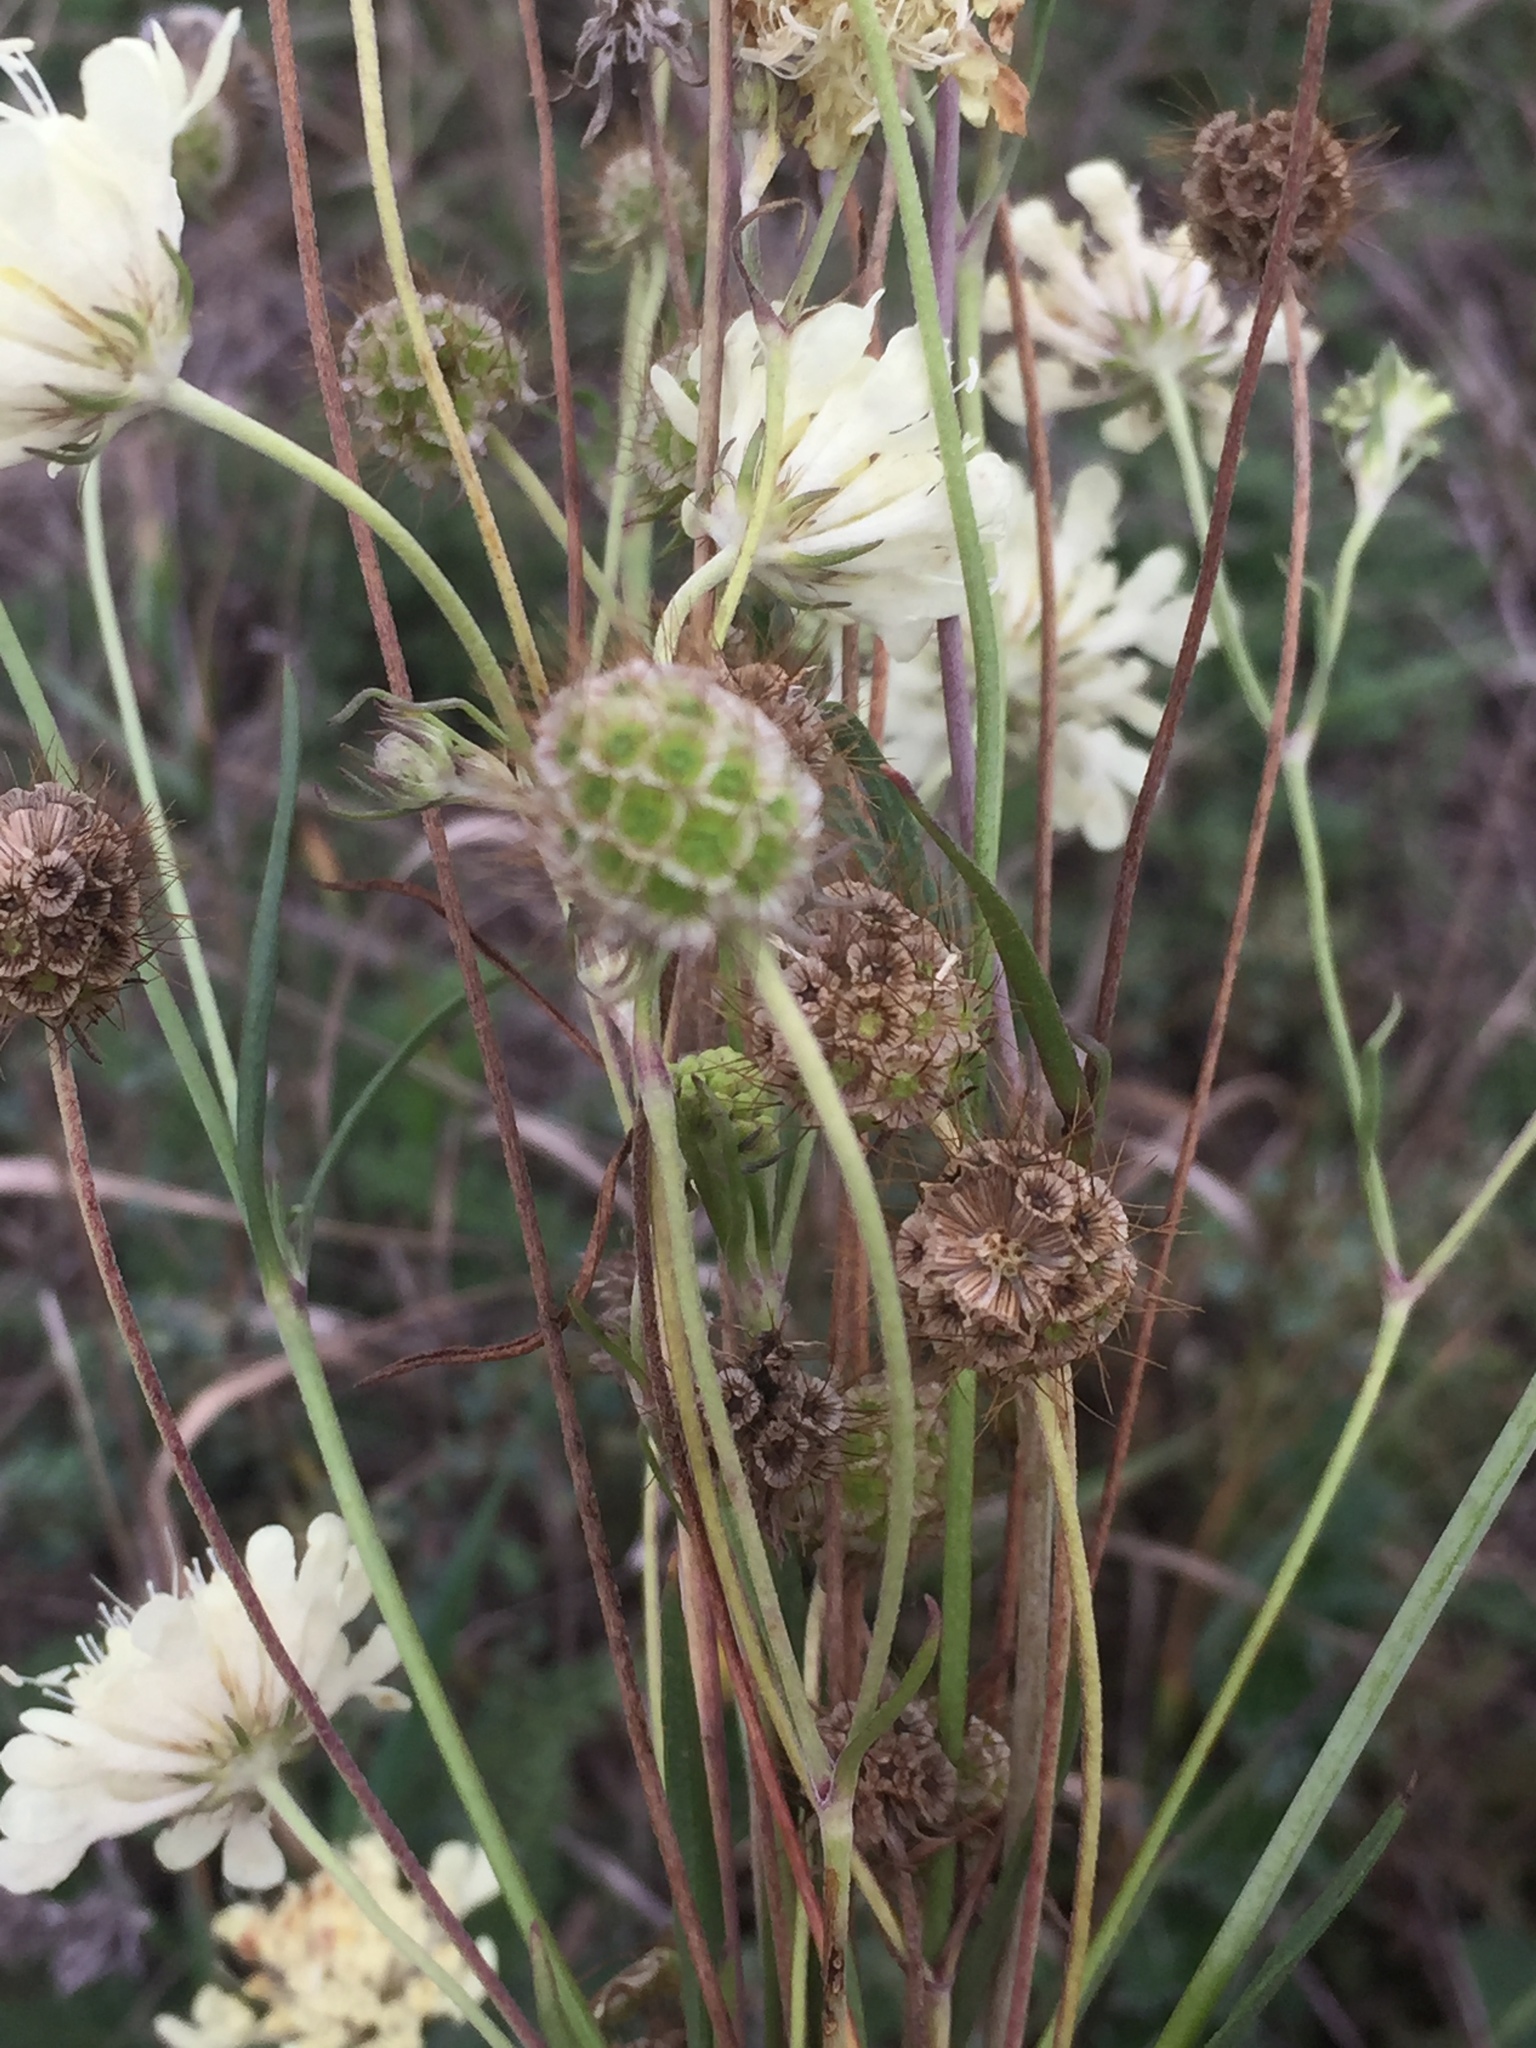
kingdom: Plantae
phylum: Tracheophyta
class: Magnoliopsida
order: Dipsacales
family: Caprifoliaceae
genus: Scabiosa
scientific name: Scabiosa ochroleuca
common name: Cream pincushions
